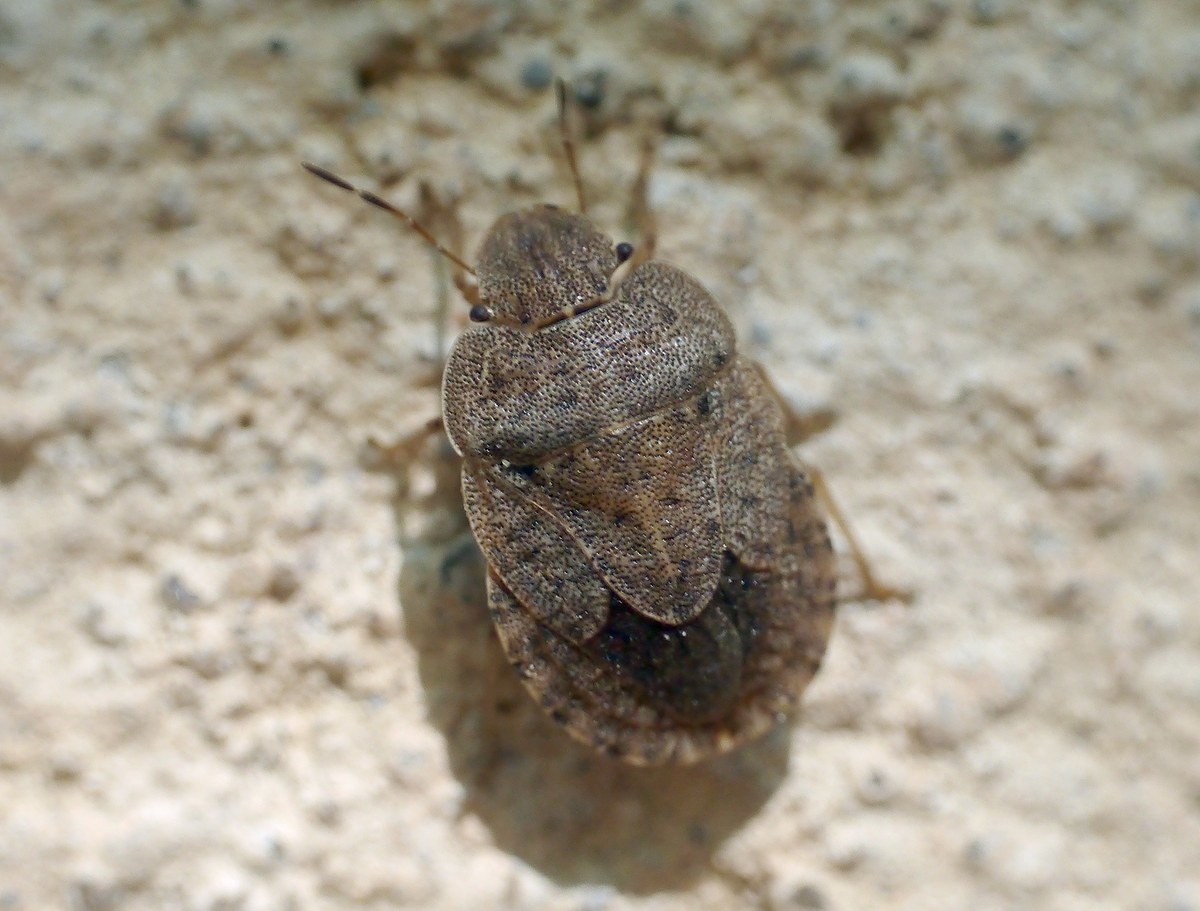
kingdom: Animalia
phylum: Arthropoda
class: Insecta
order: Hemiptera
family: Pentatomidae
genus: Sciocoris
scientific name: Sciocoris homalonotus
